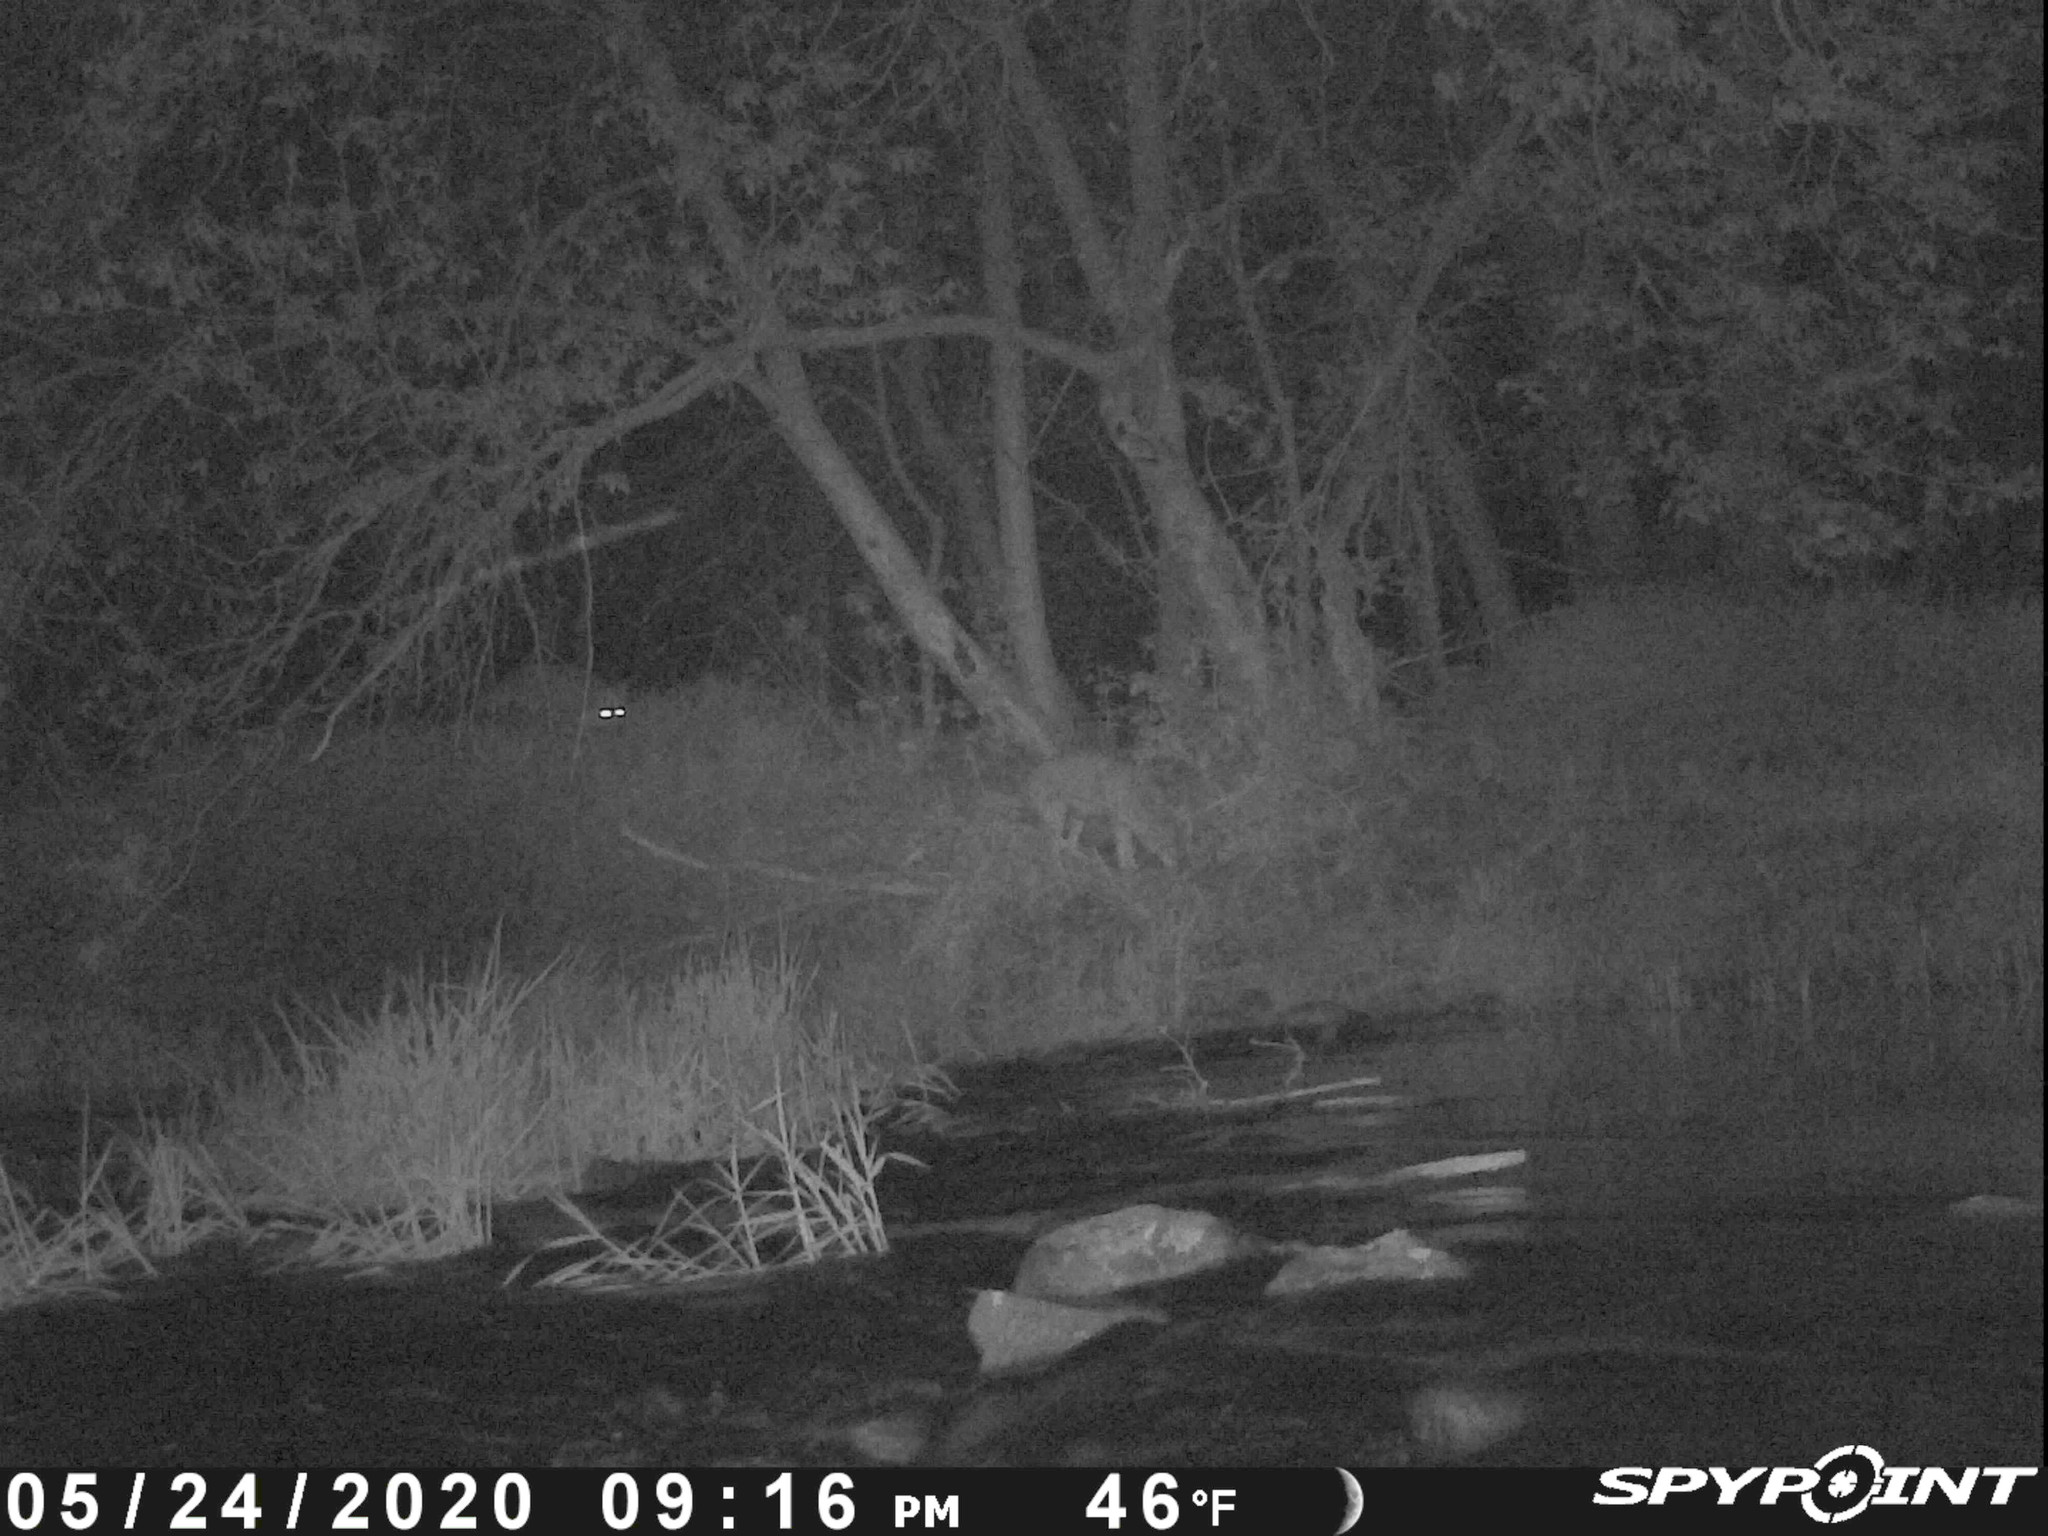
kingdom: Animalia
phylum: Chordata
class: Mammalia
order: Carnivora
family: Canidae
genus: Canis
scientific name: Canis latrans
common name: Coyote
